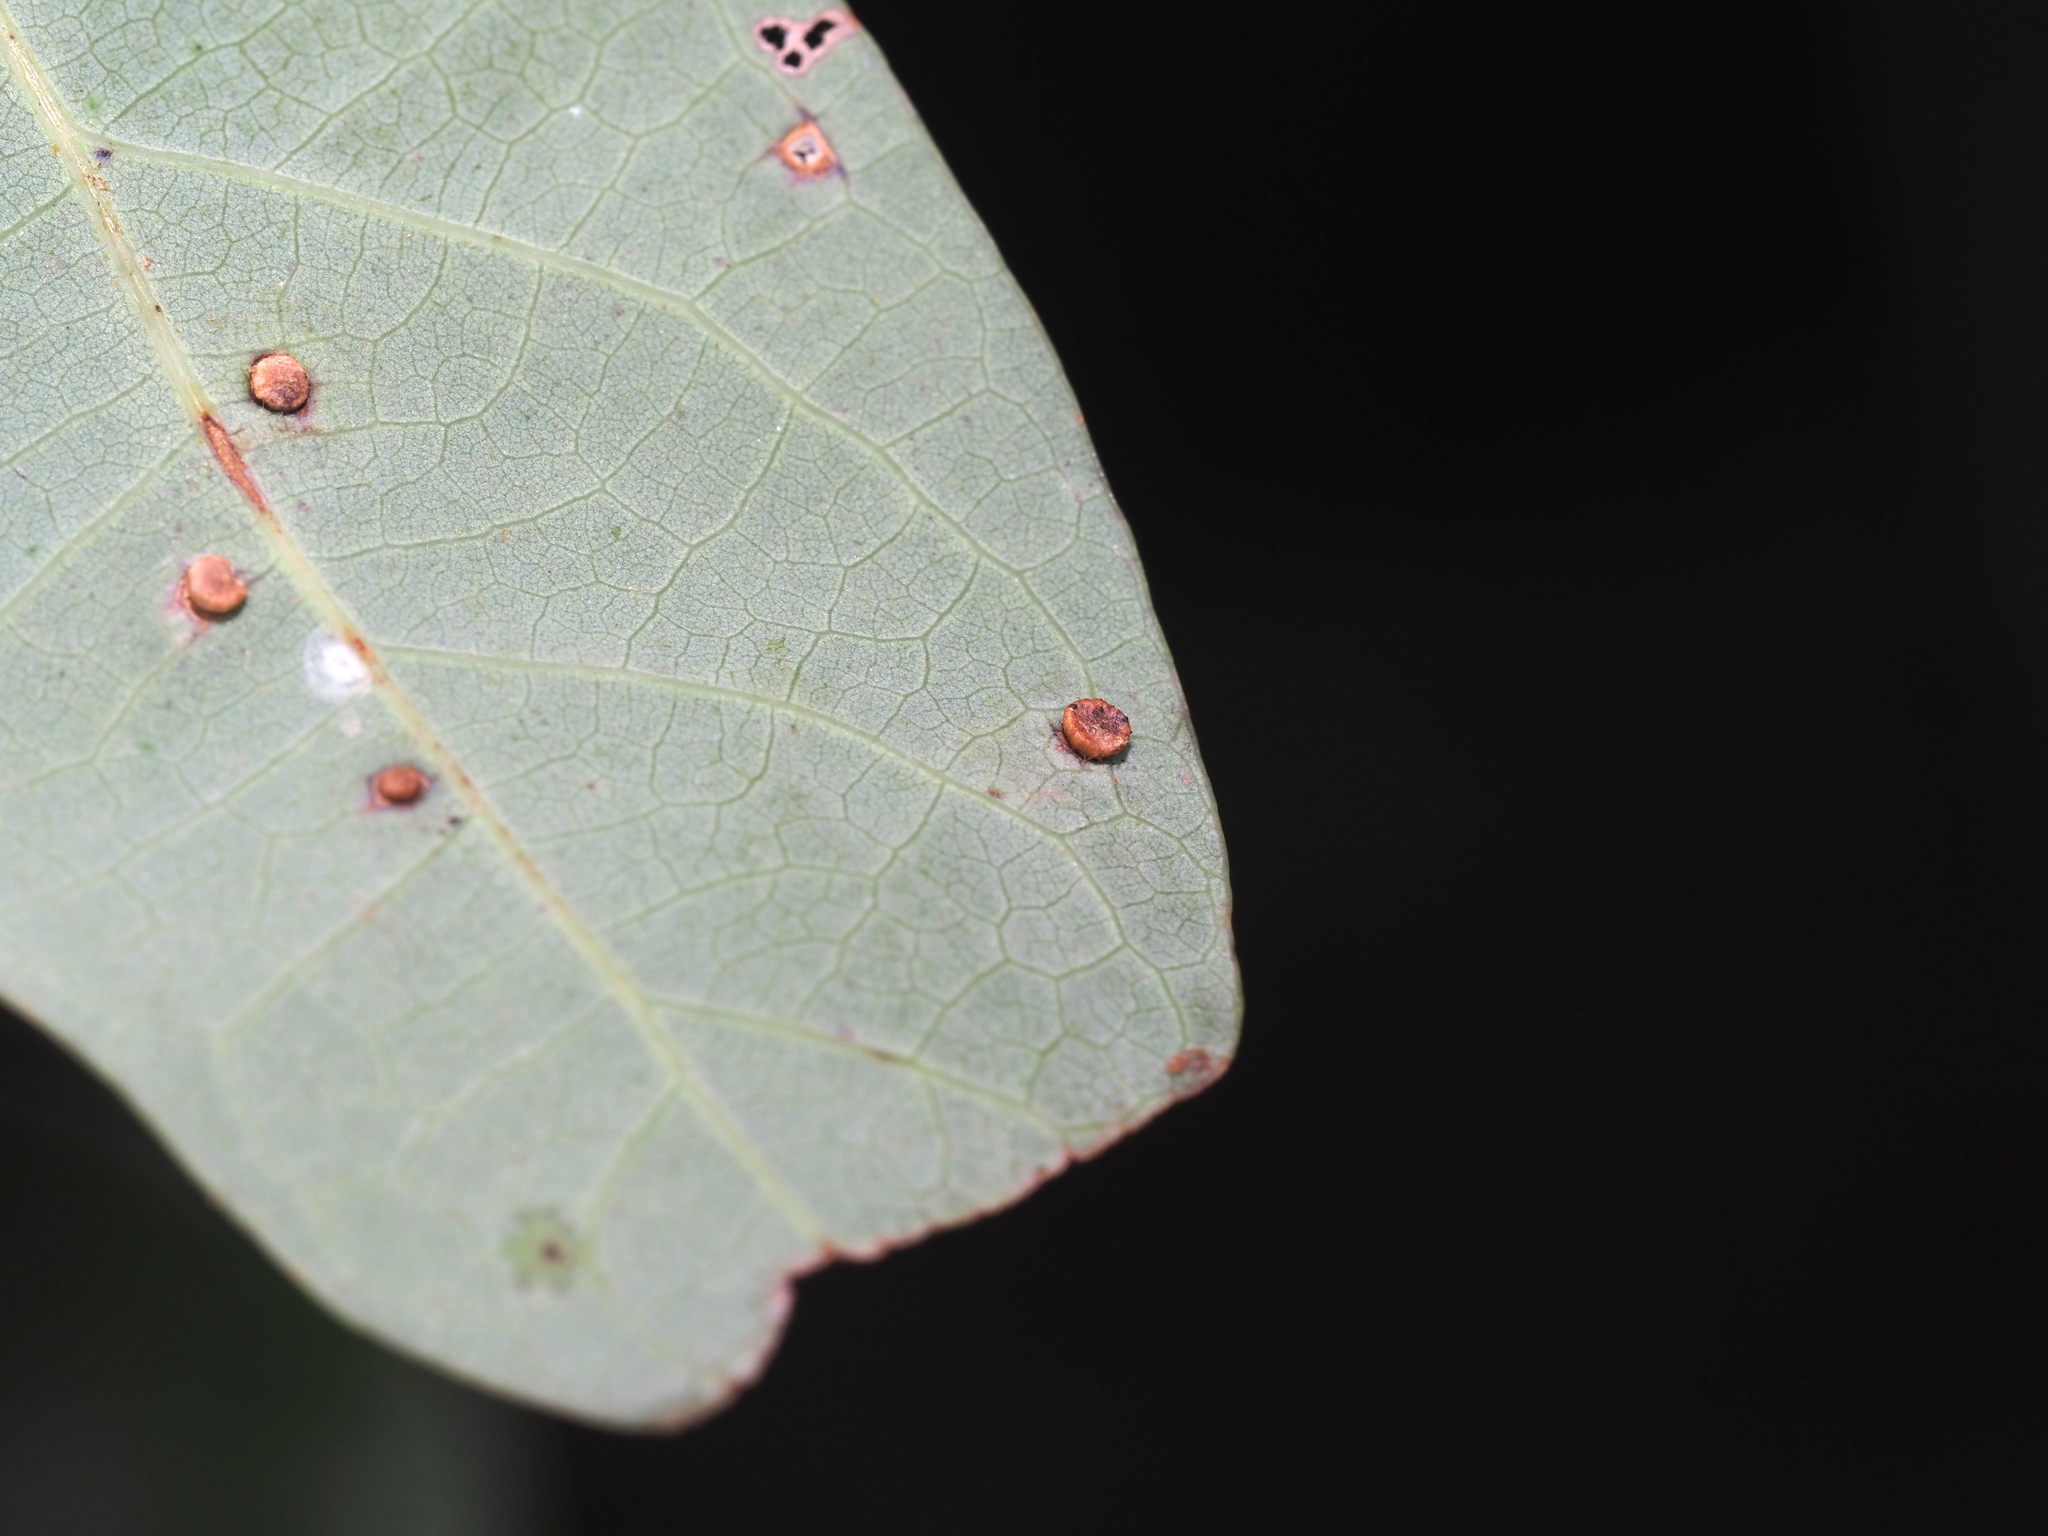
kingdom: Animalia
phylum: Arthropoda
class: Insecta
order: Hymenoptera
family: Cynipidae
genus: Neuroterus
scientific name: Neuroterus
